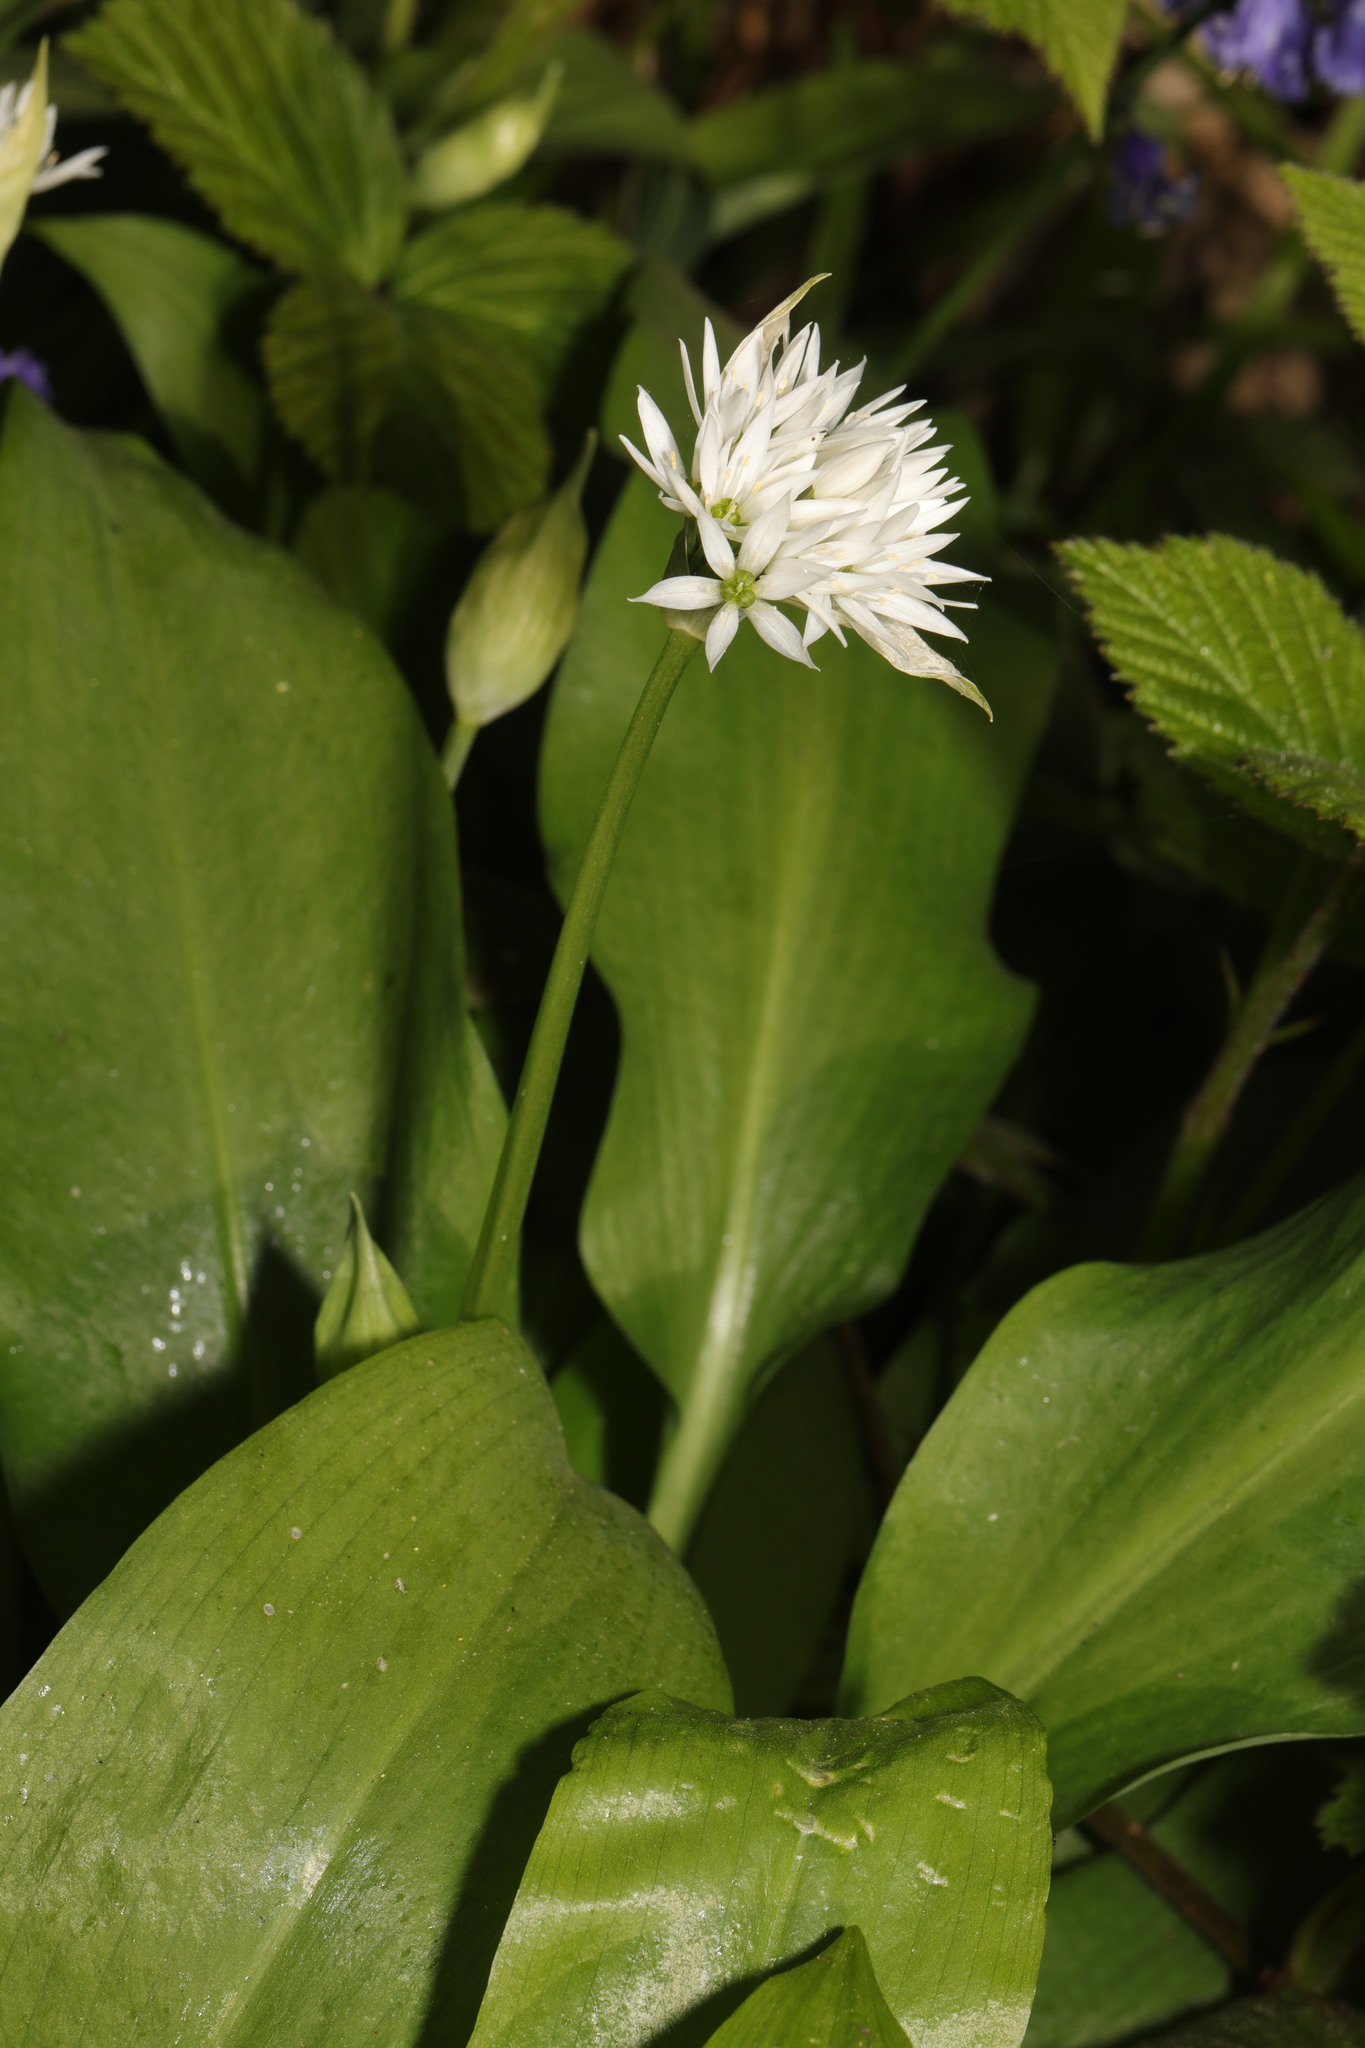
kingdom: Plantae
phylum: Tracheophyta
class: Liliopsida
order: Asparagales
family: Amaryllidaceae
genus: Allium
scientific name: Allium ursinum
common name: Ramsons
